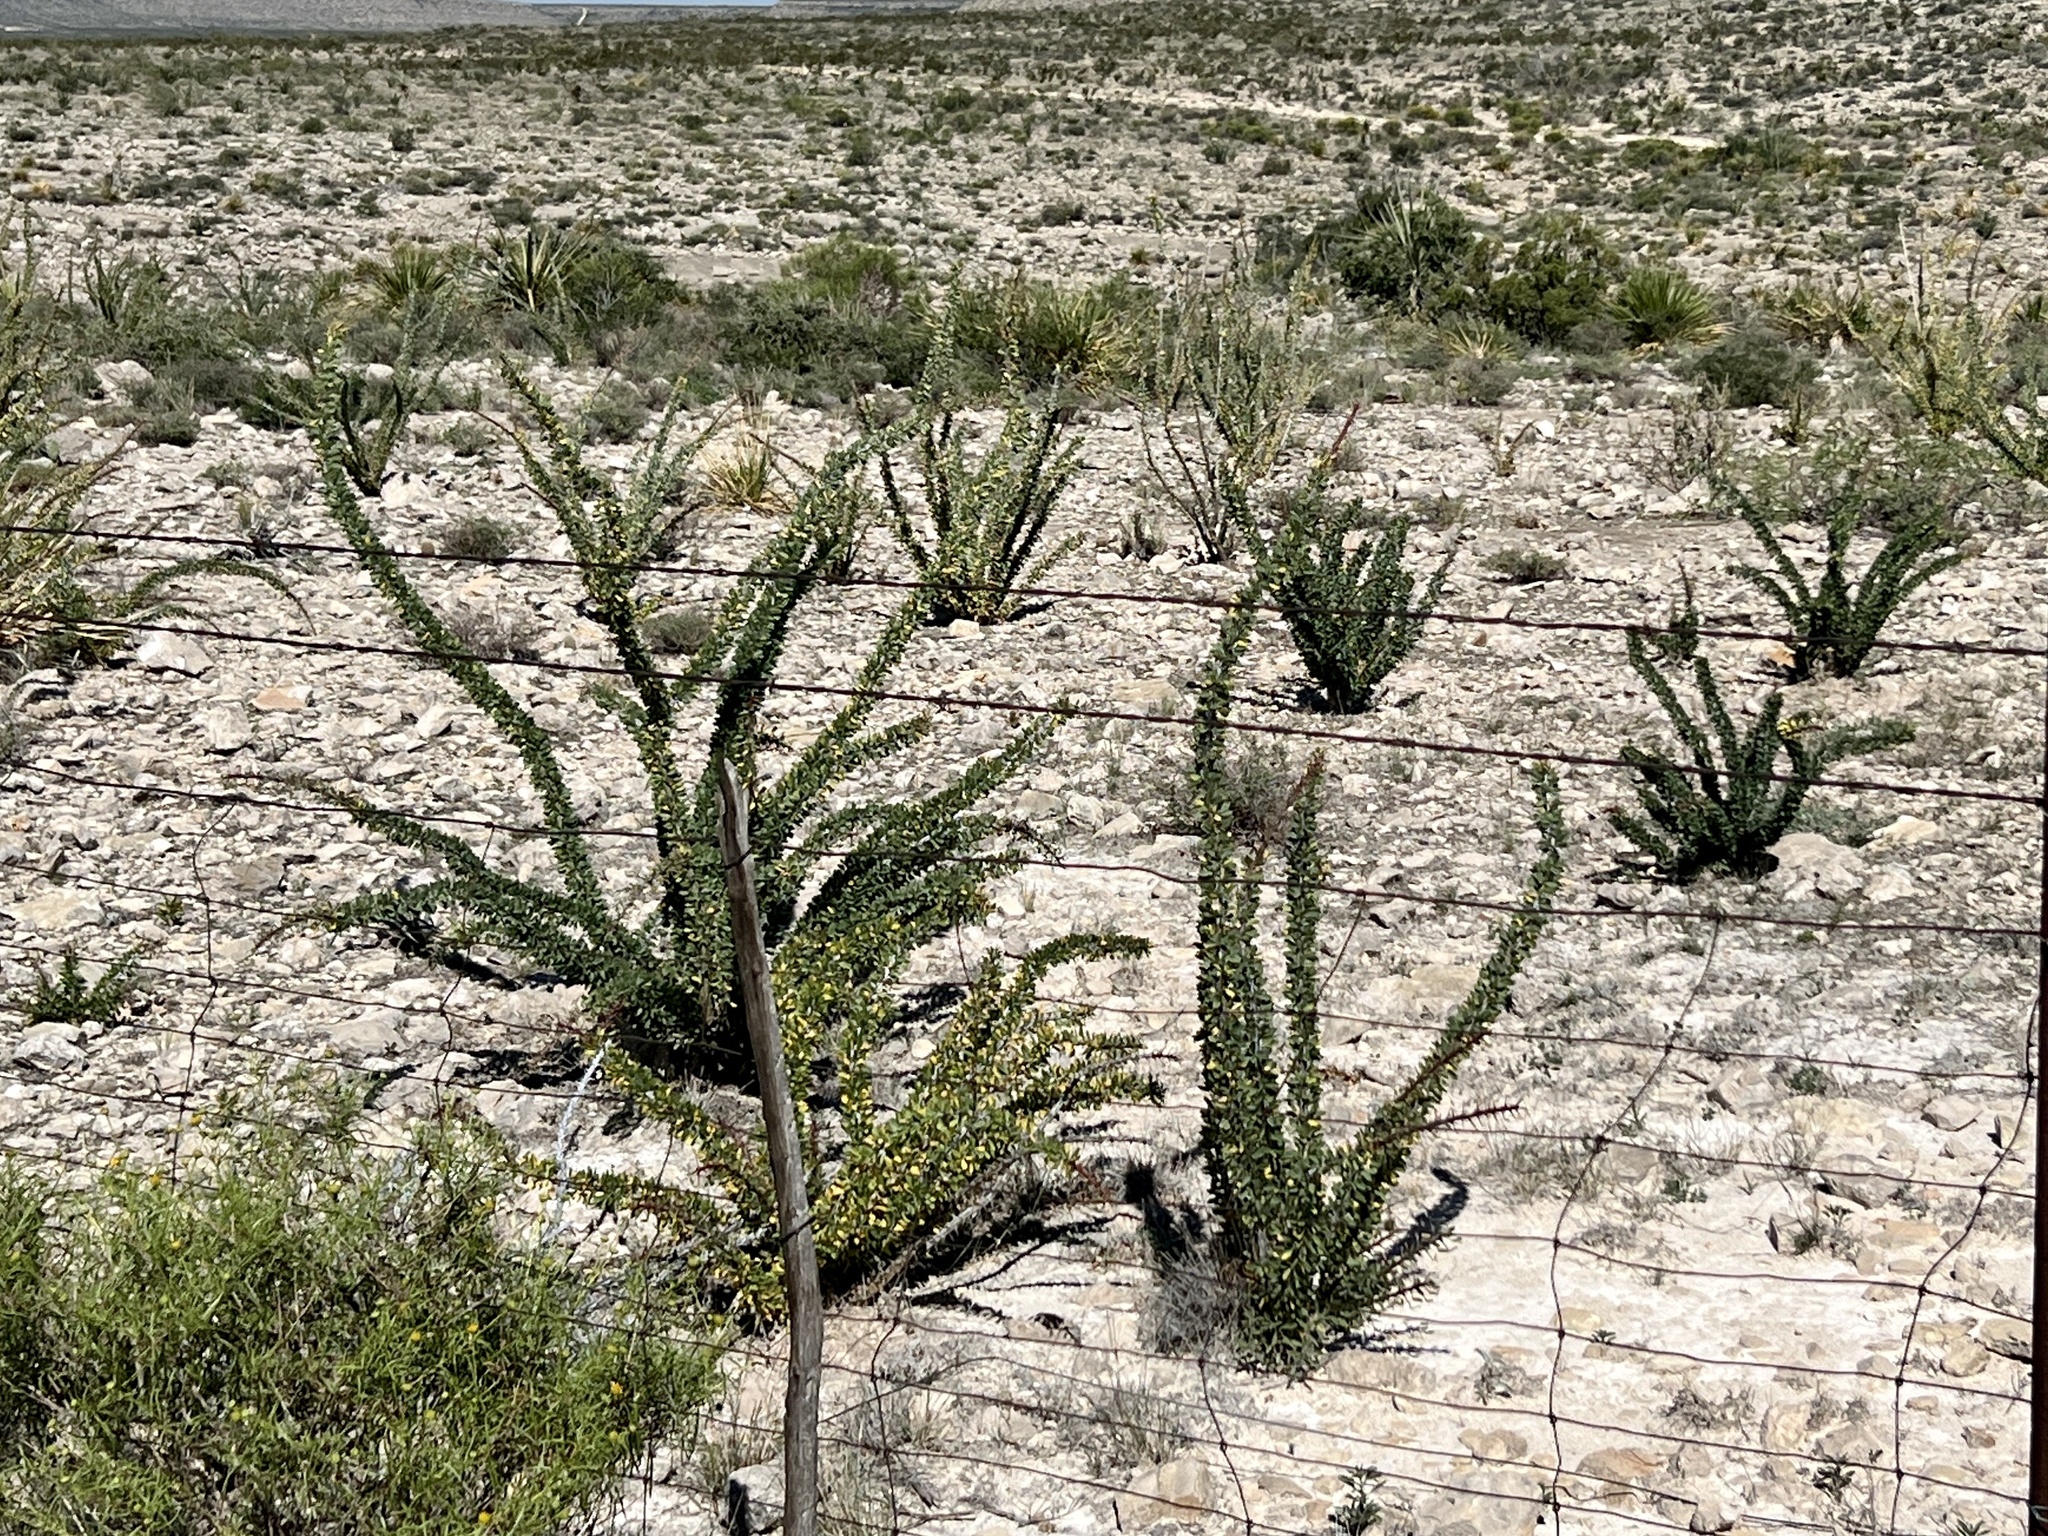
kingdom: Plantae
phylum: Tracheophyta
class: Magnoliopsida
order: Ericales
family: Fouquieriaceae
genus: Fouquieria
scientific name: Fouquieria splendens
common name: Vine-cactus
